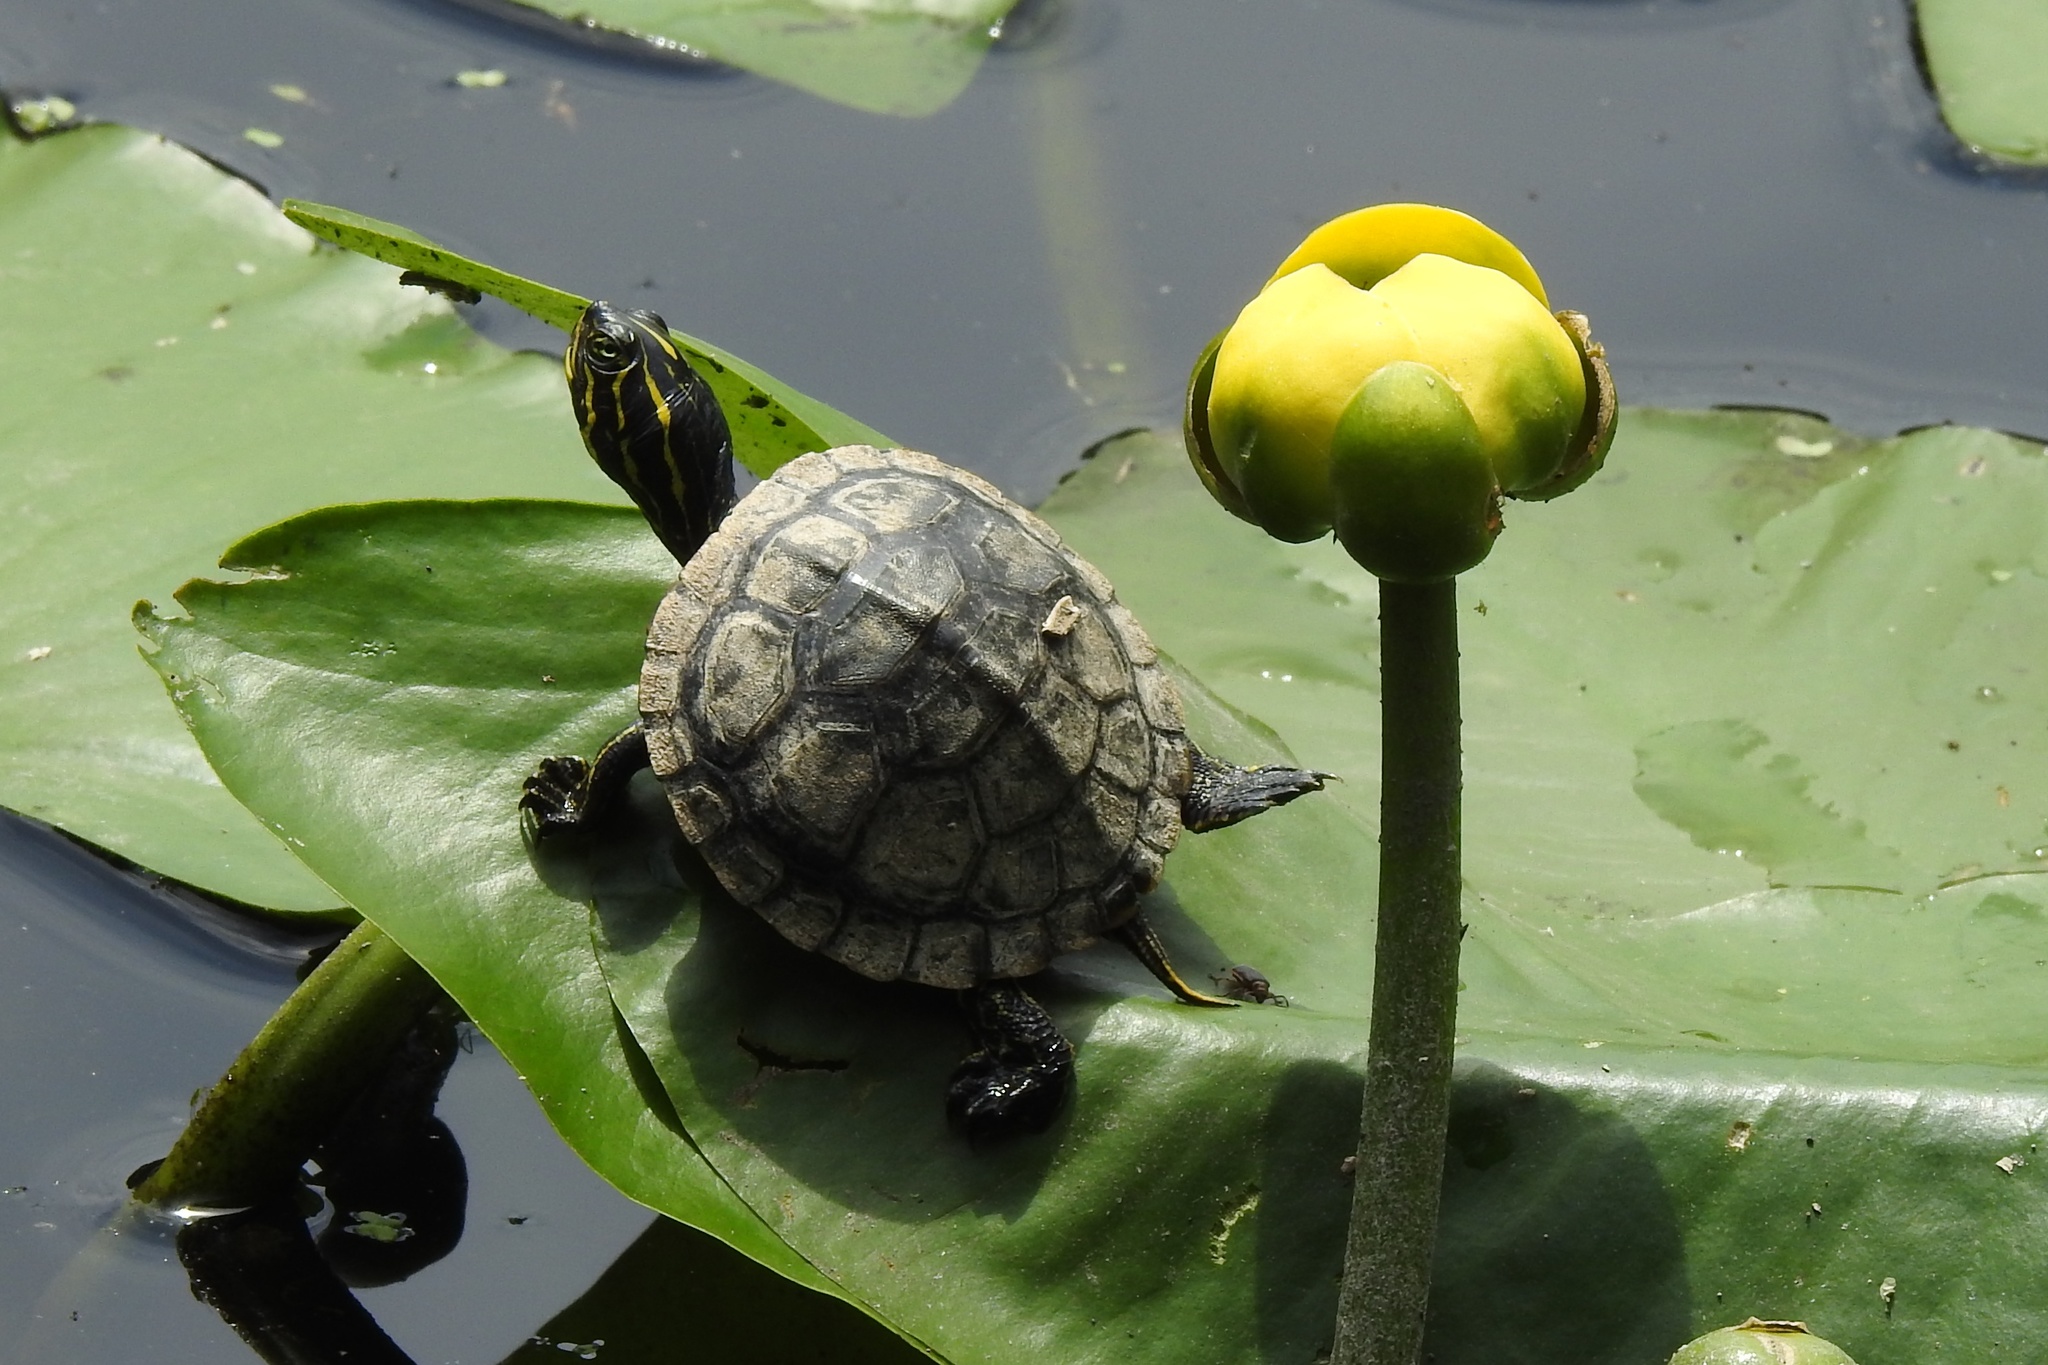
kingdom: Animalia
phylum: Chordata
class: Testudines
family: Emydidae
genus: Pseudemys
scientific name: Pseudemys rubriventris
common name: American red-bellied turtle
